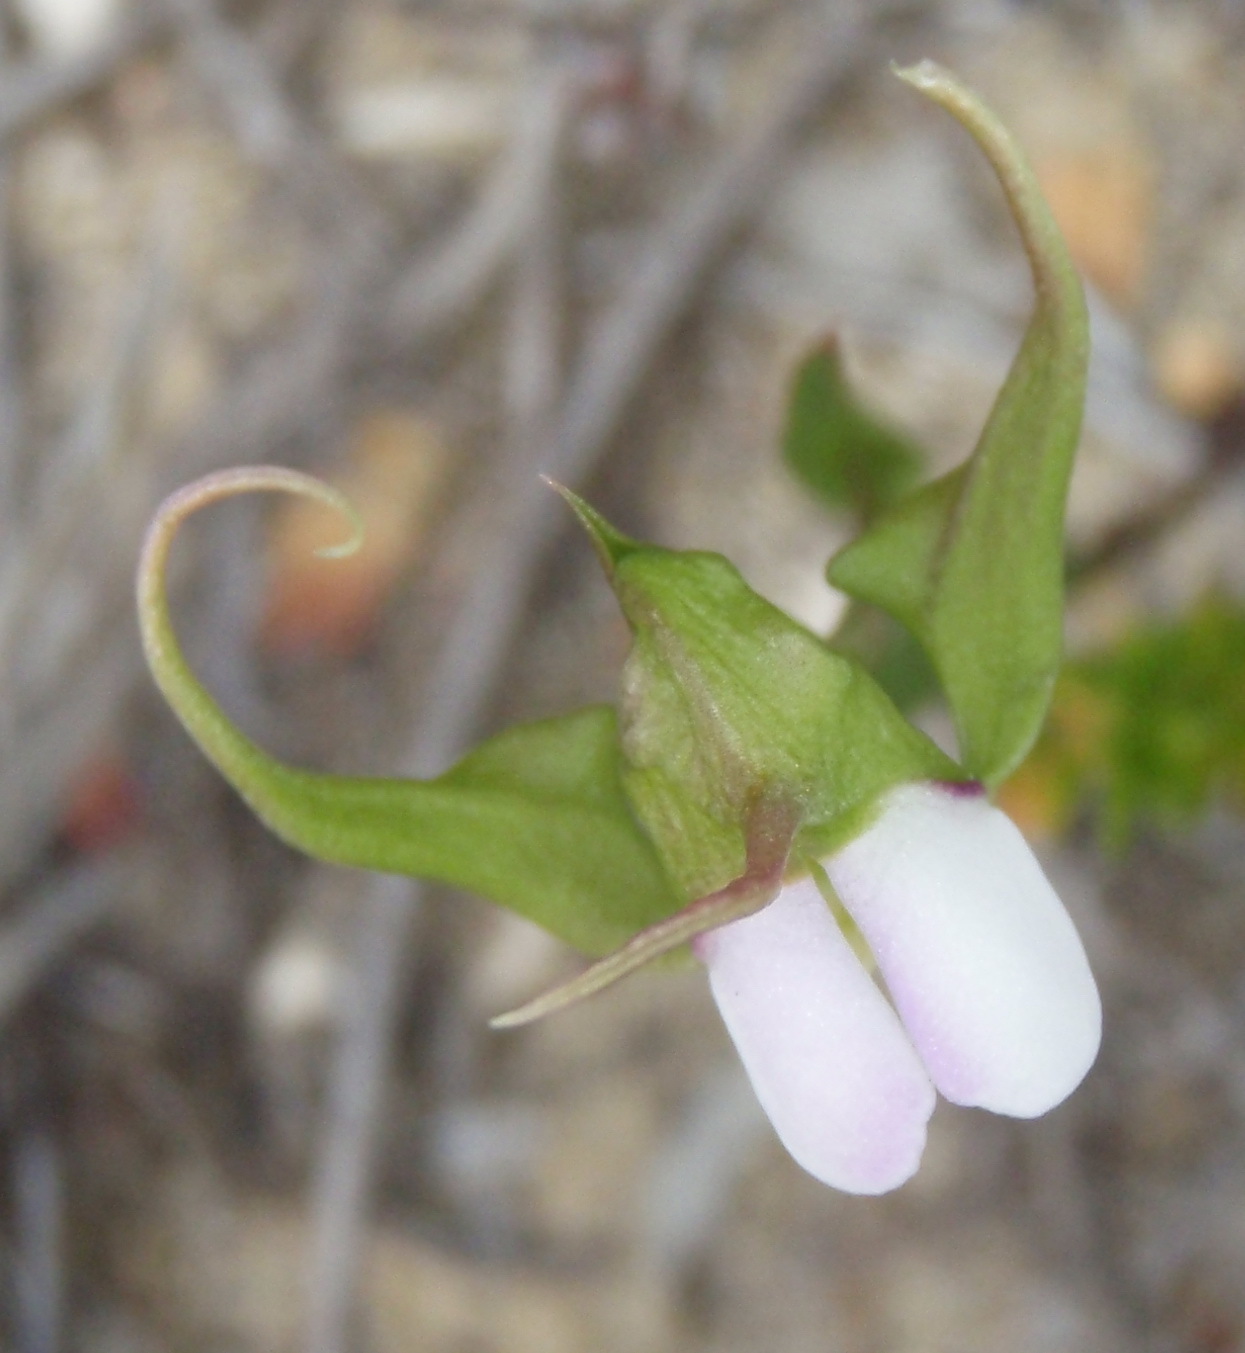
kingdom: Plantae
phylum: Tracheophyta
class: Liliopsida
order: Asparagales
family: Orchidaceae
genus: Disperis
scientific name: Disperis capensis
